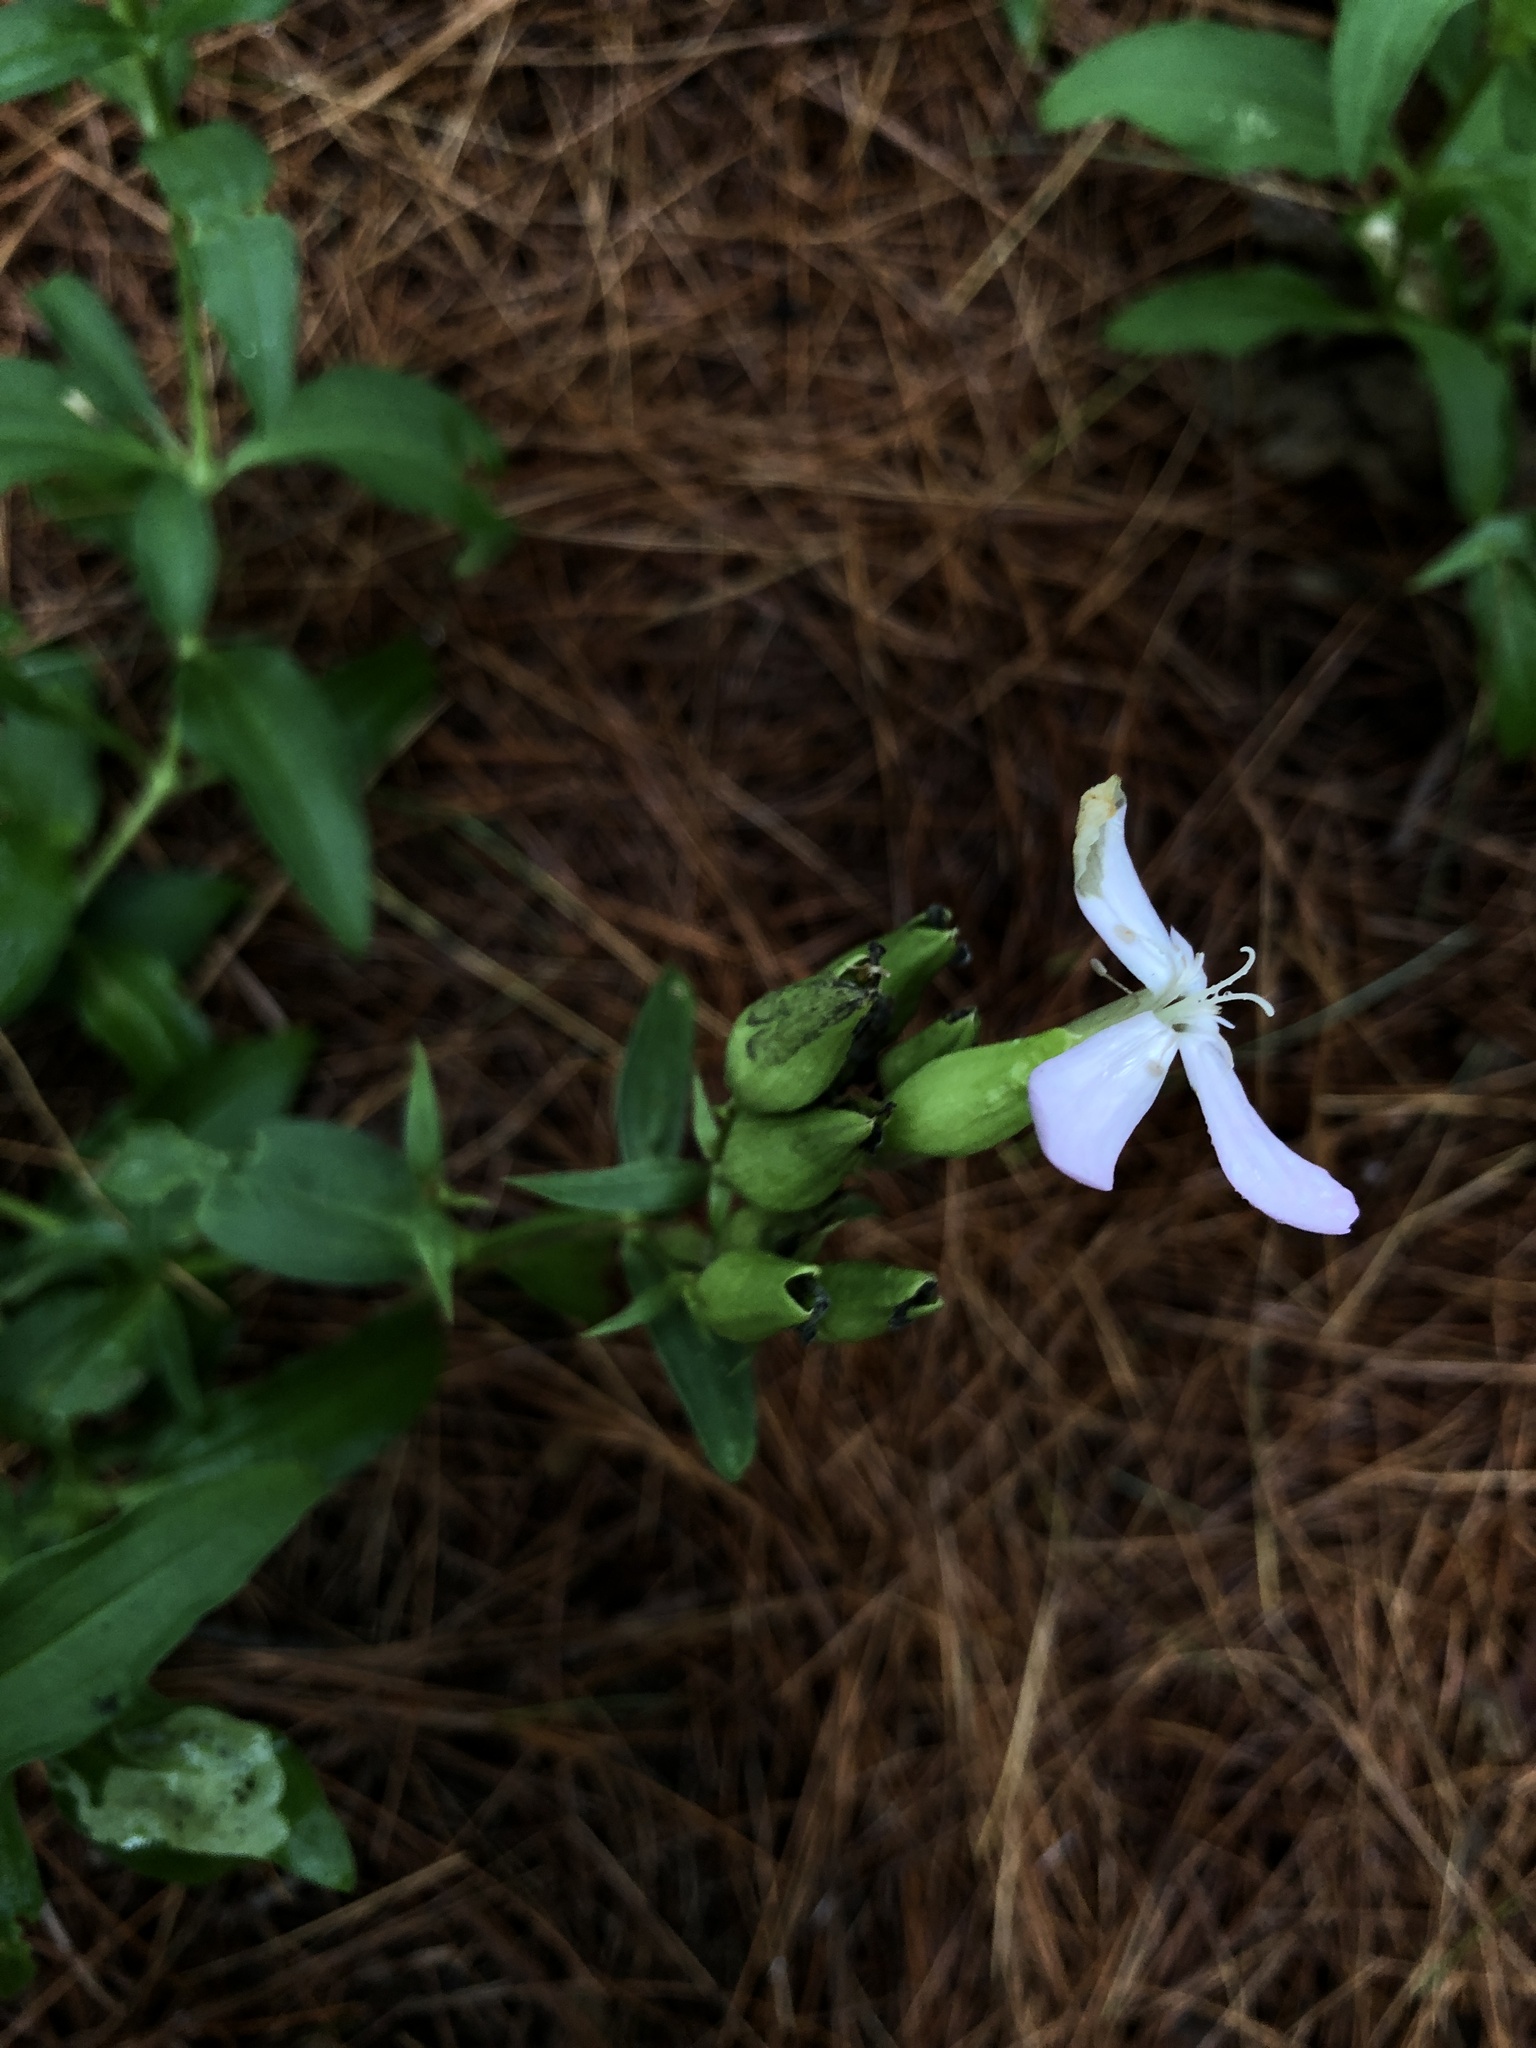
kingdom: Plantae
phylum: Tracheophyta
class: Magnoliopsida
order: Caryophyllales
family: Caryophyllaceae
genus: Saponaria
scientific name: Saponaria officinalis
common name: Soapwort
